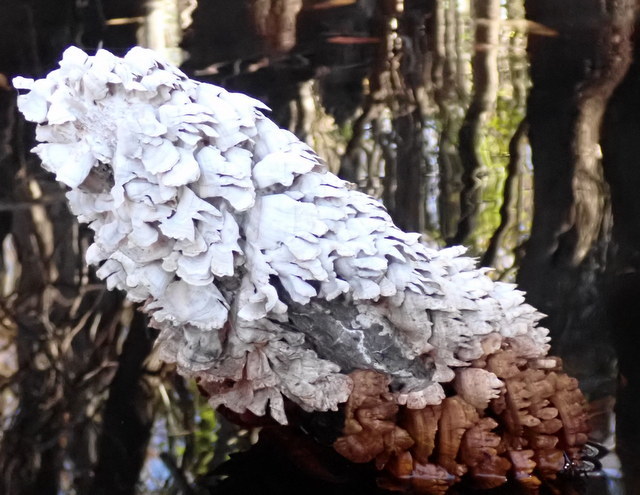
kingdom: Fungi
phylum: Basidiomycota
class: Agaricomycetes
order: Hymenochaetales
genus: Trichaptum
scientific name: Trichaptum biforme
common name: Violet-toothed polypore
